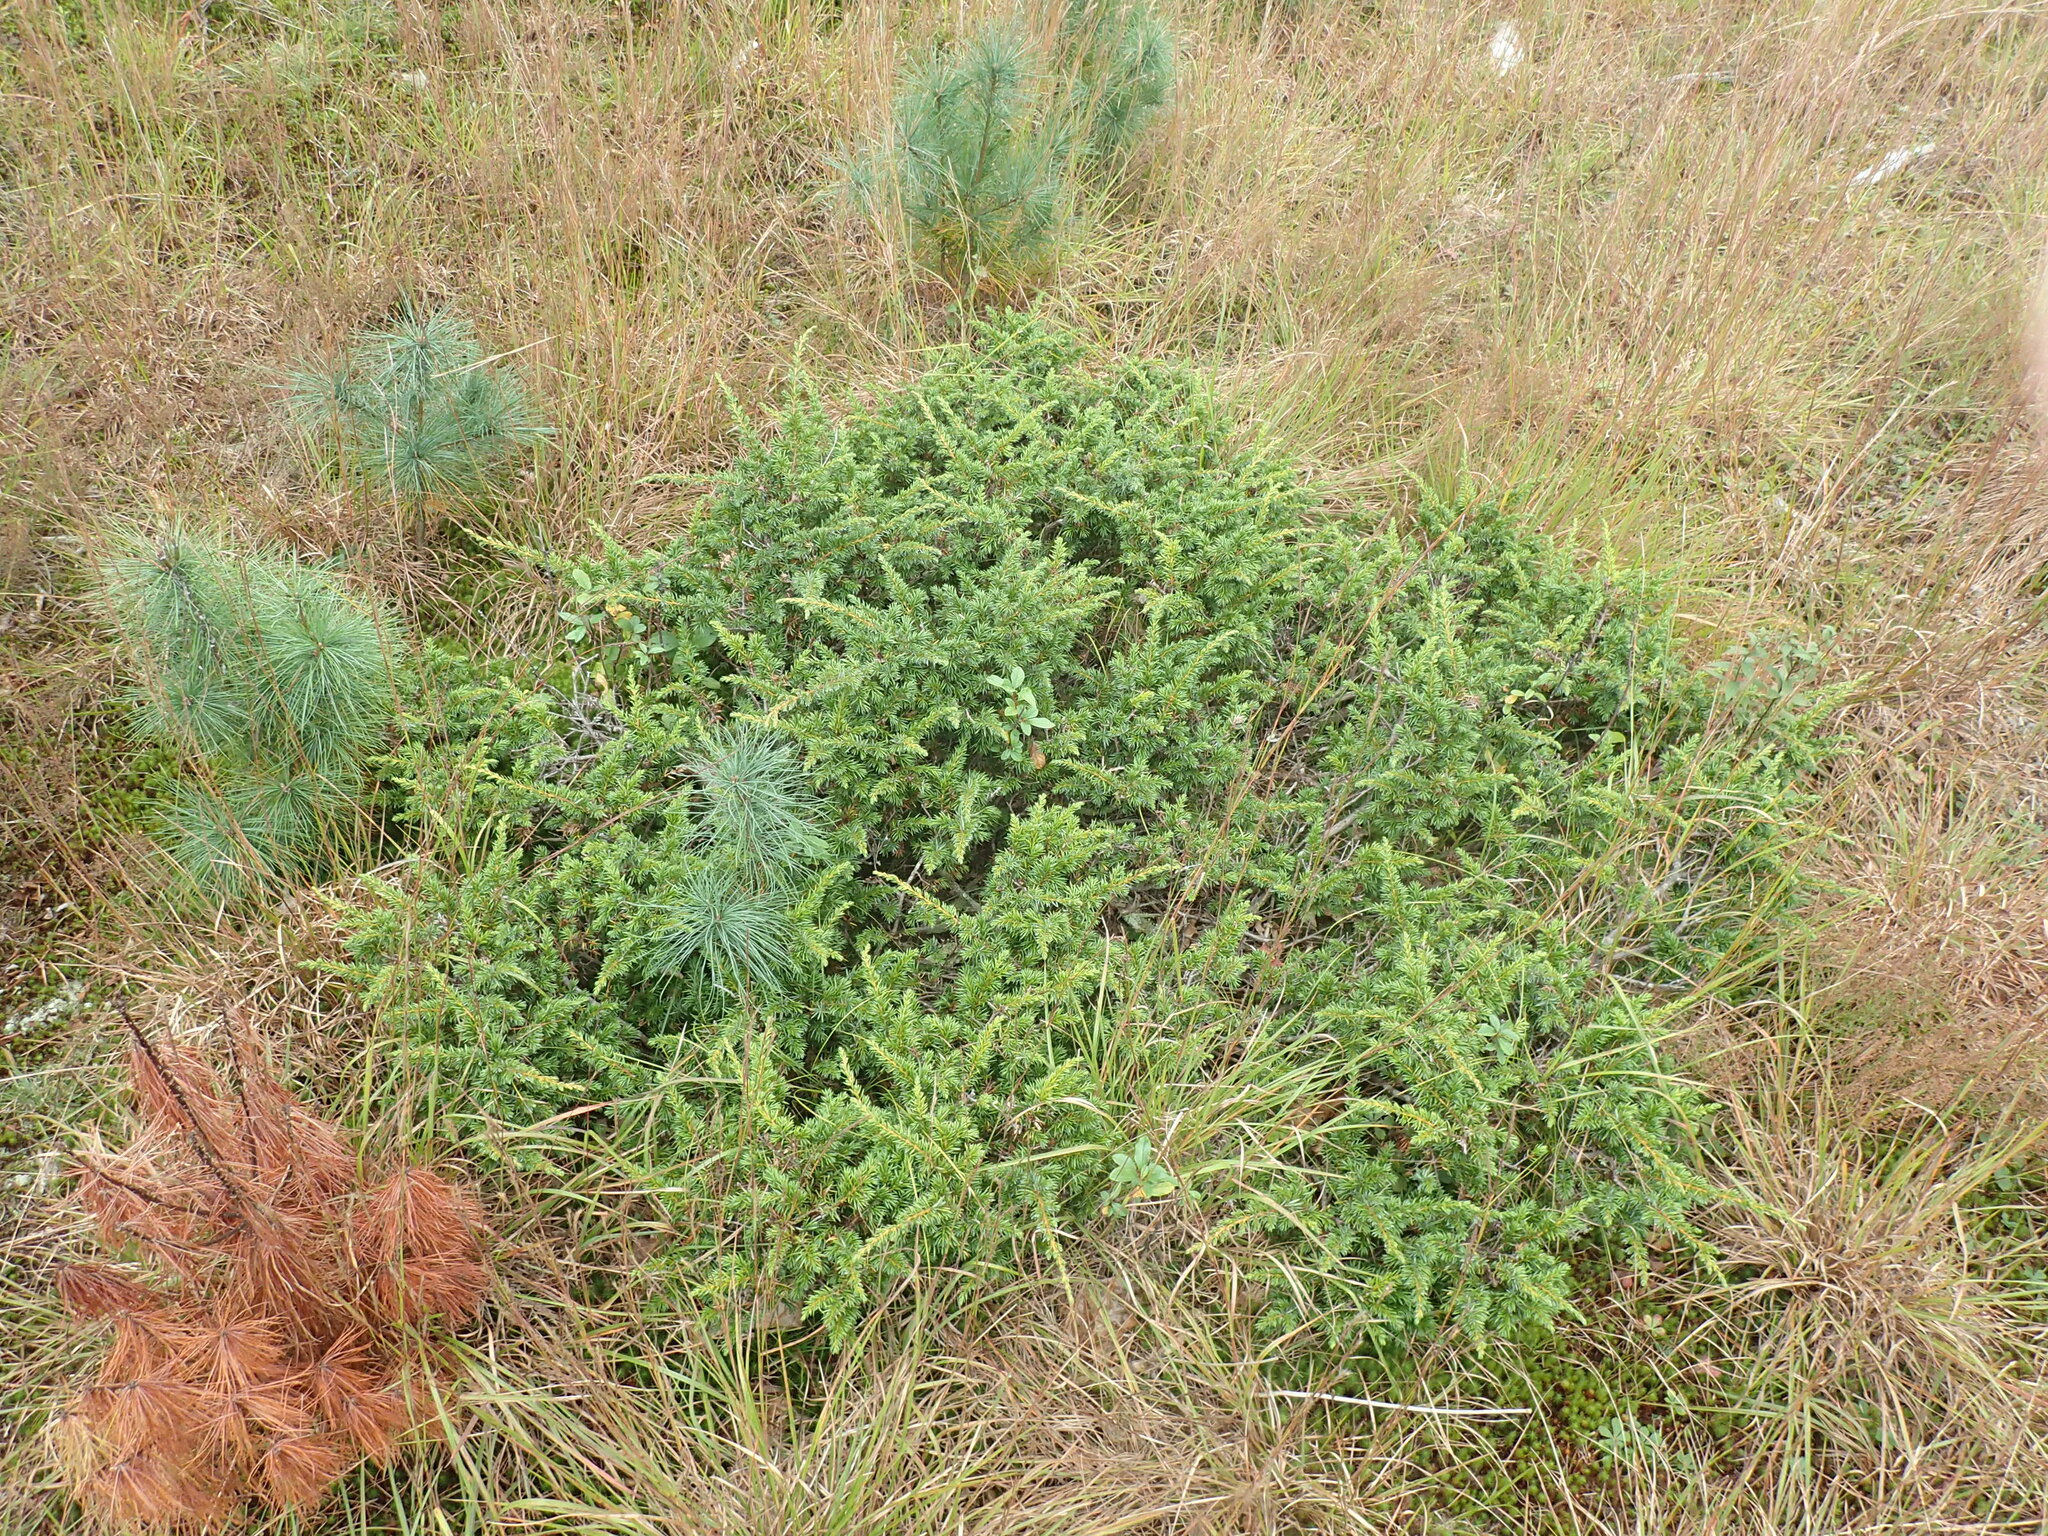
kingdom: Plantae
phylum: Tracheophyta
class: Pinopsida
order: Pinales
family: Cupressaceae
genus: Juniperus
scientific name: Juniperus communis
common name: Common juniper
